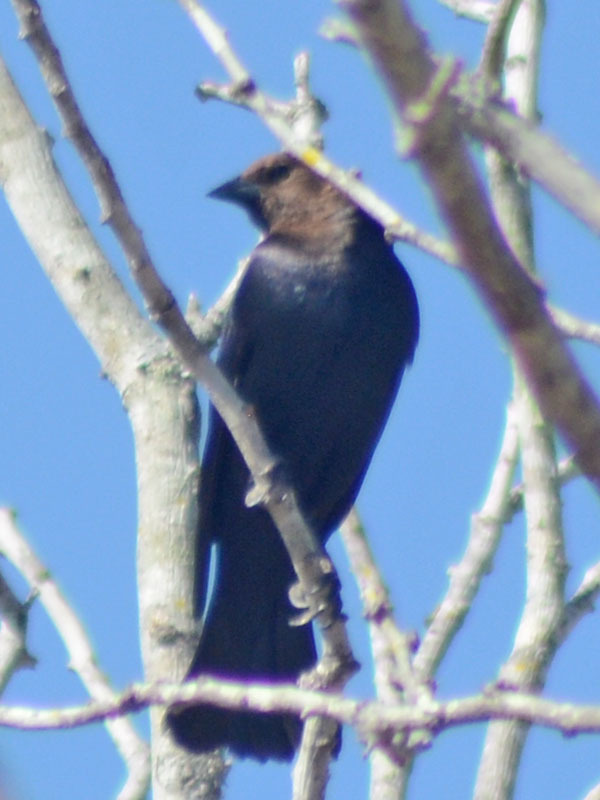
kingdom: Animalia
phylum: Chordata
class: Aves
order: Passeriformes
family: Icteridae
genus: Molothrus
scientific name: Molothrus ater
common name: Brown-headed cowbird
